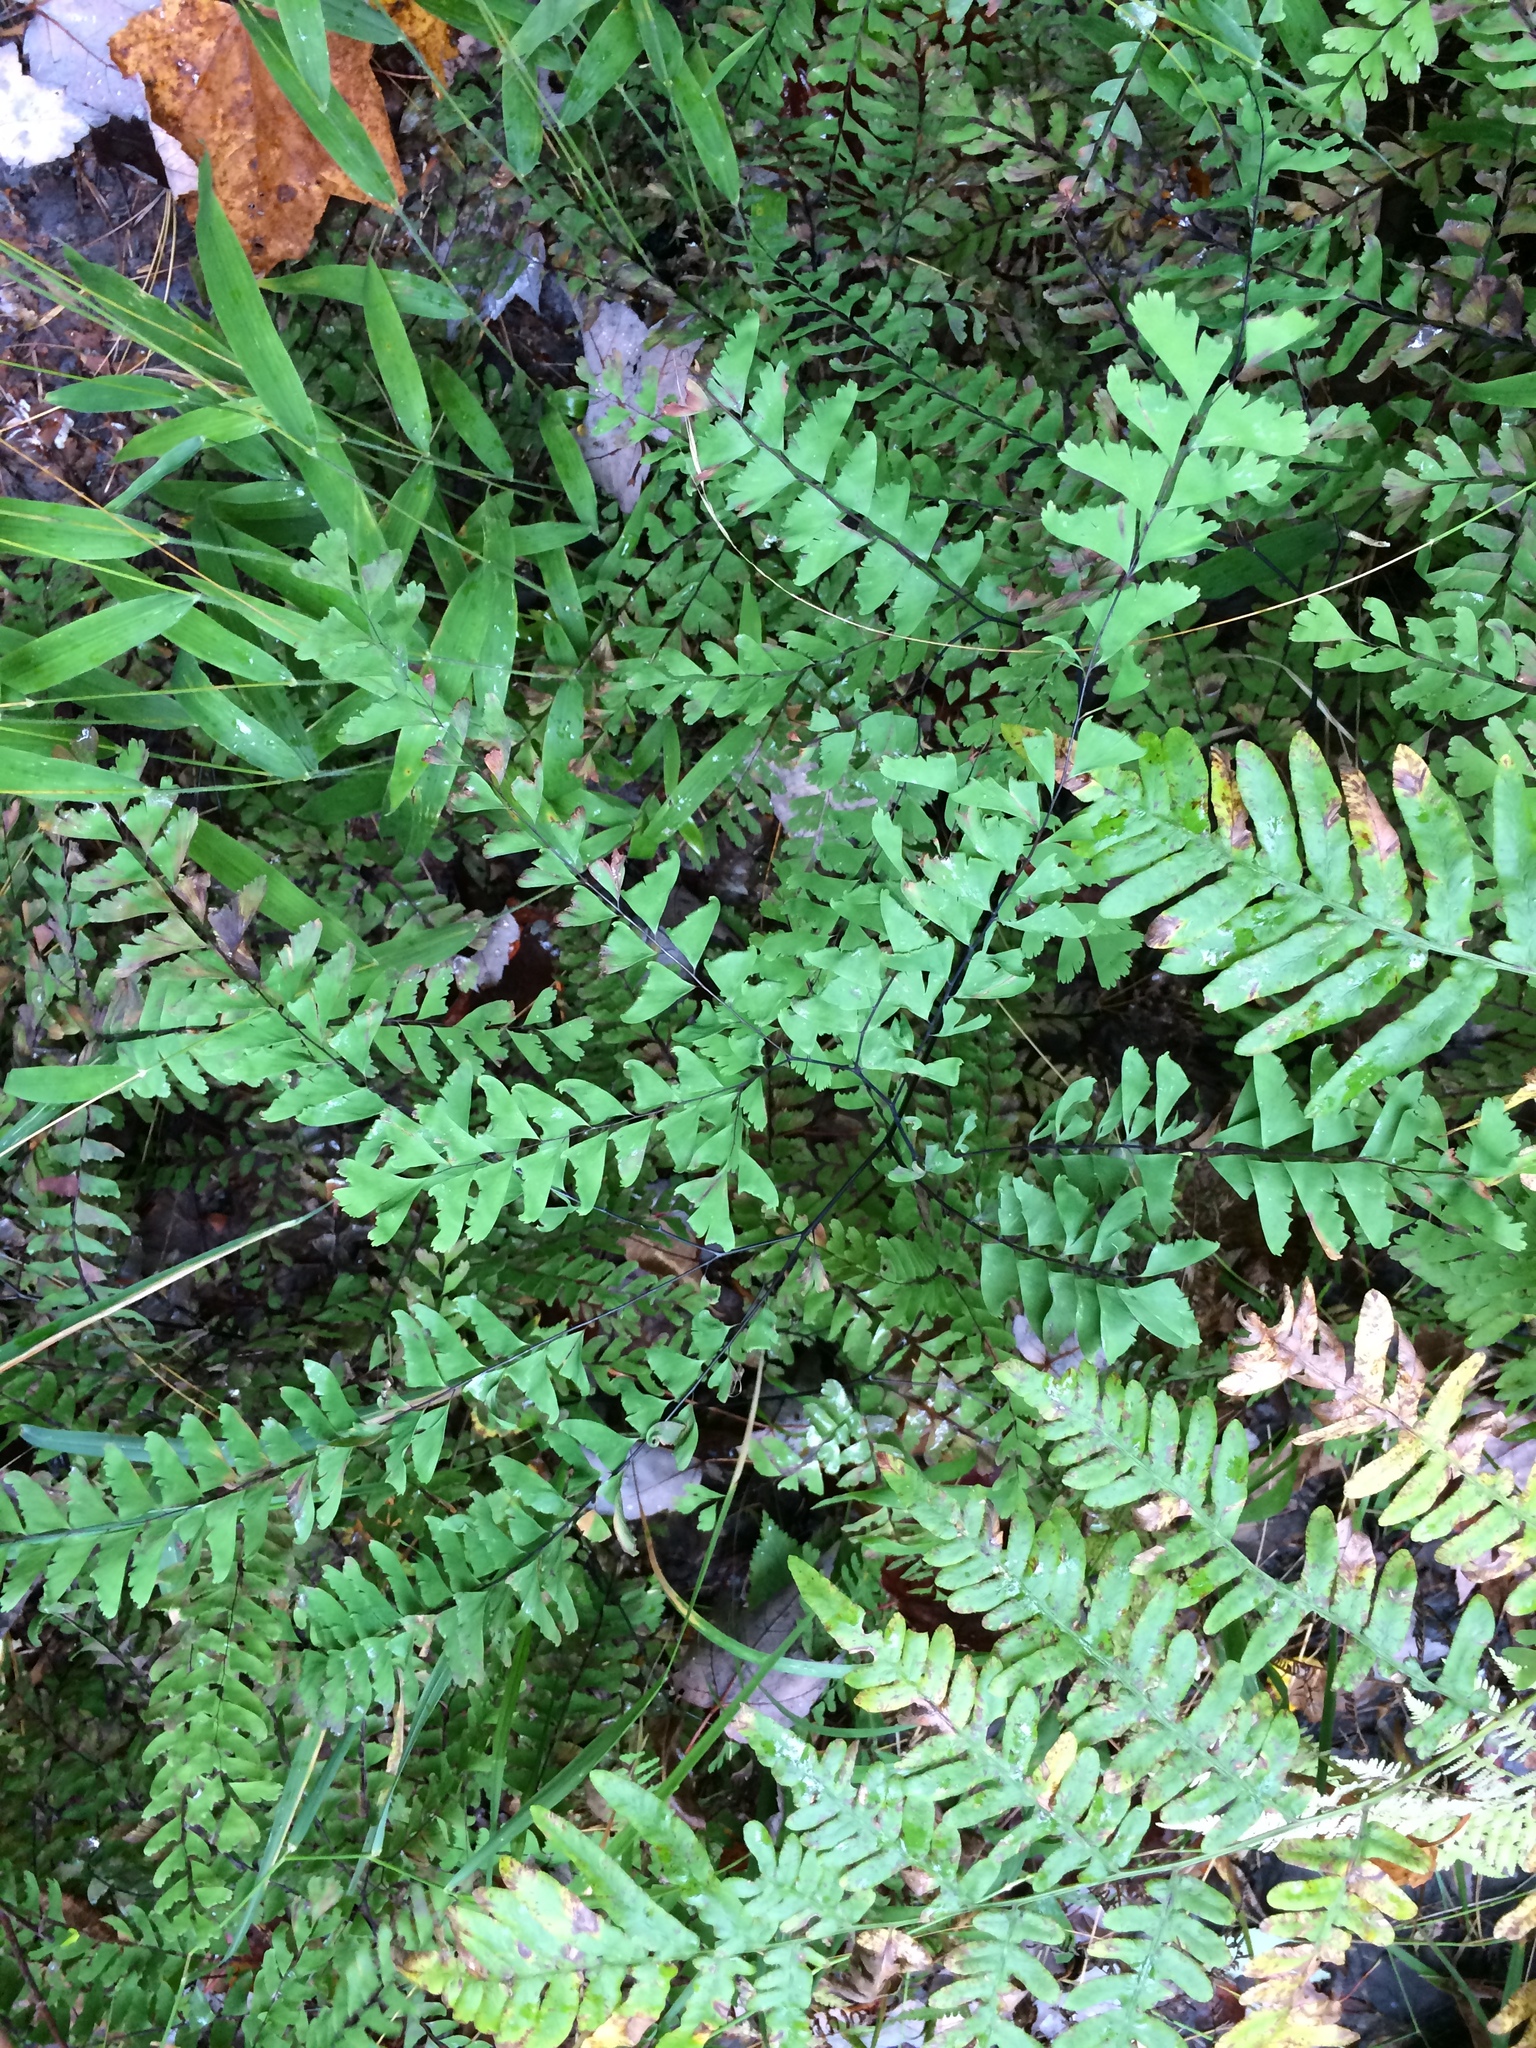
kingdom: Plantae
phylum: Tracheophyta
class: Polypodiopsida
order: Polypodiales
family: Pteridaceae
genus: Adiantum
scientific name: Adiantum viridimontanum
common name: Green mountain maidenhair
